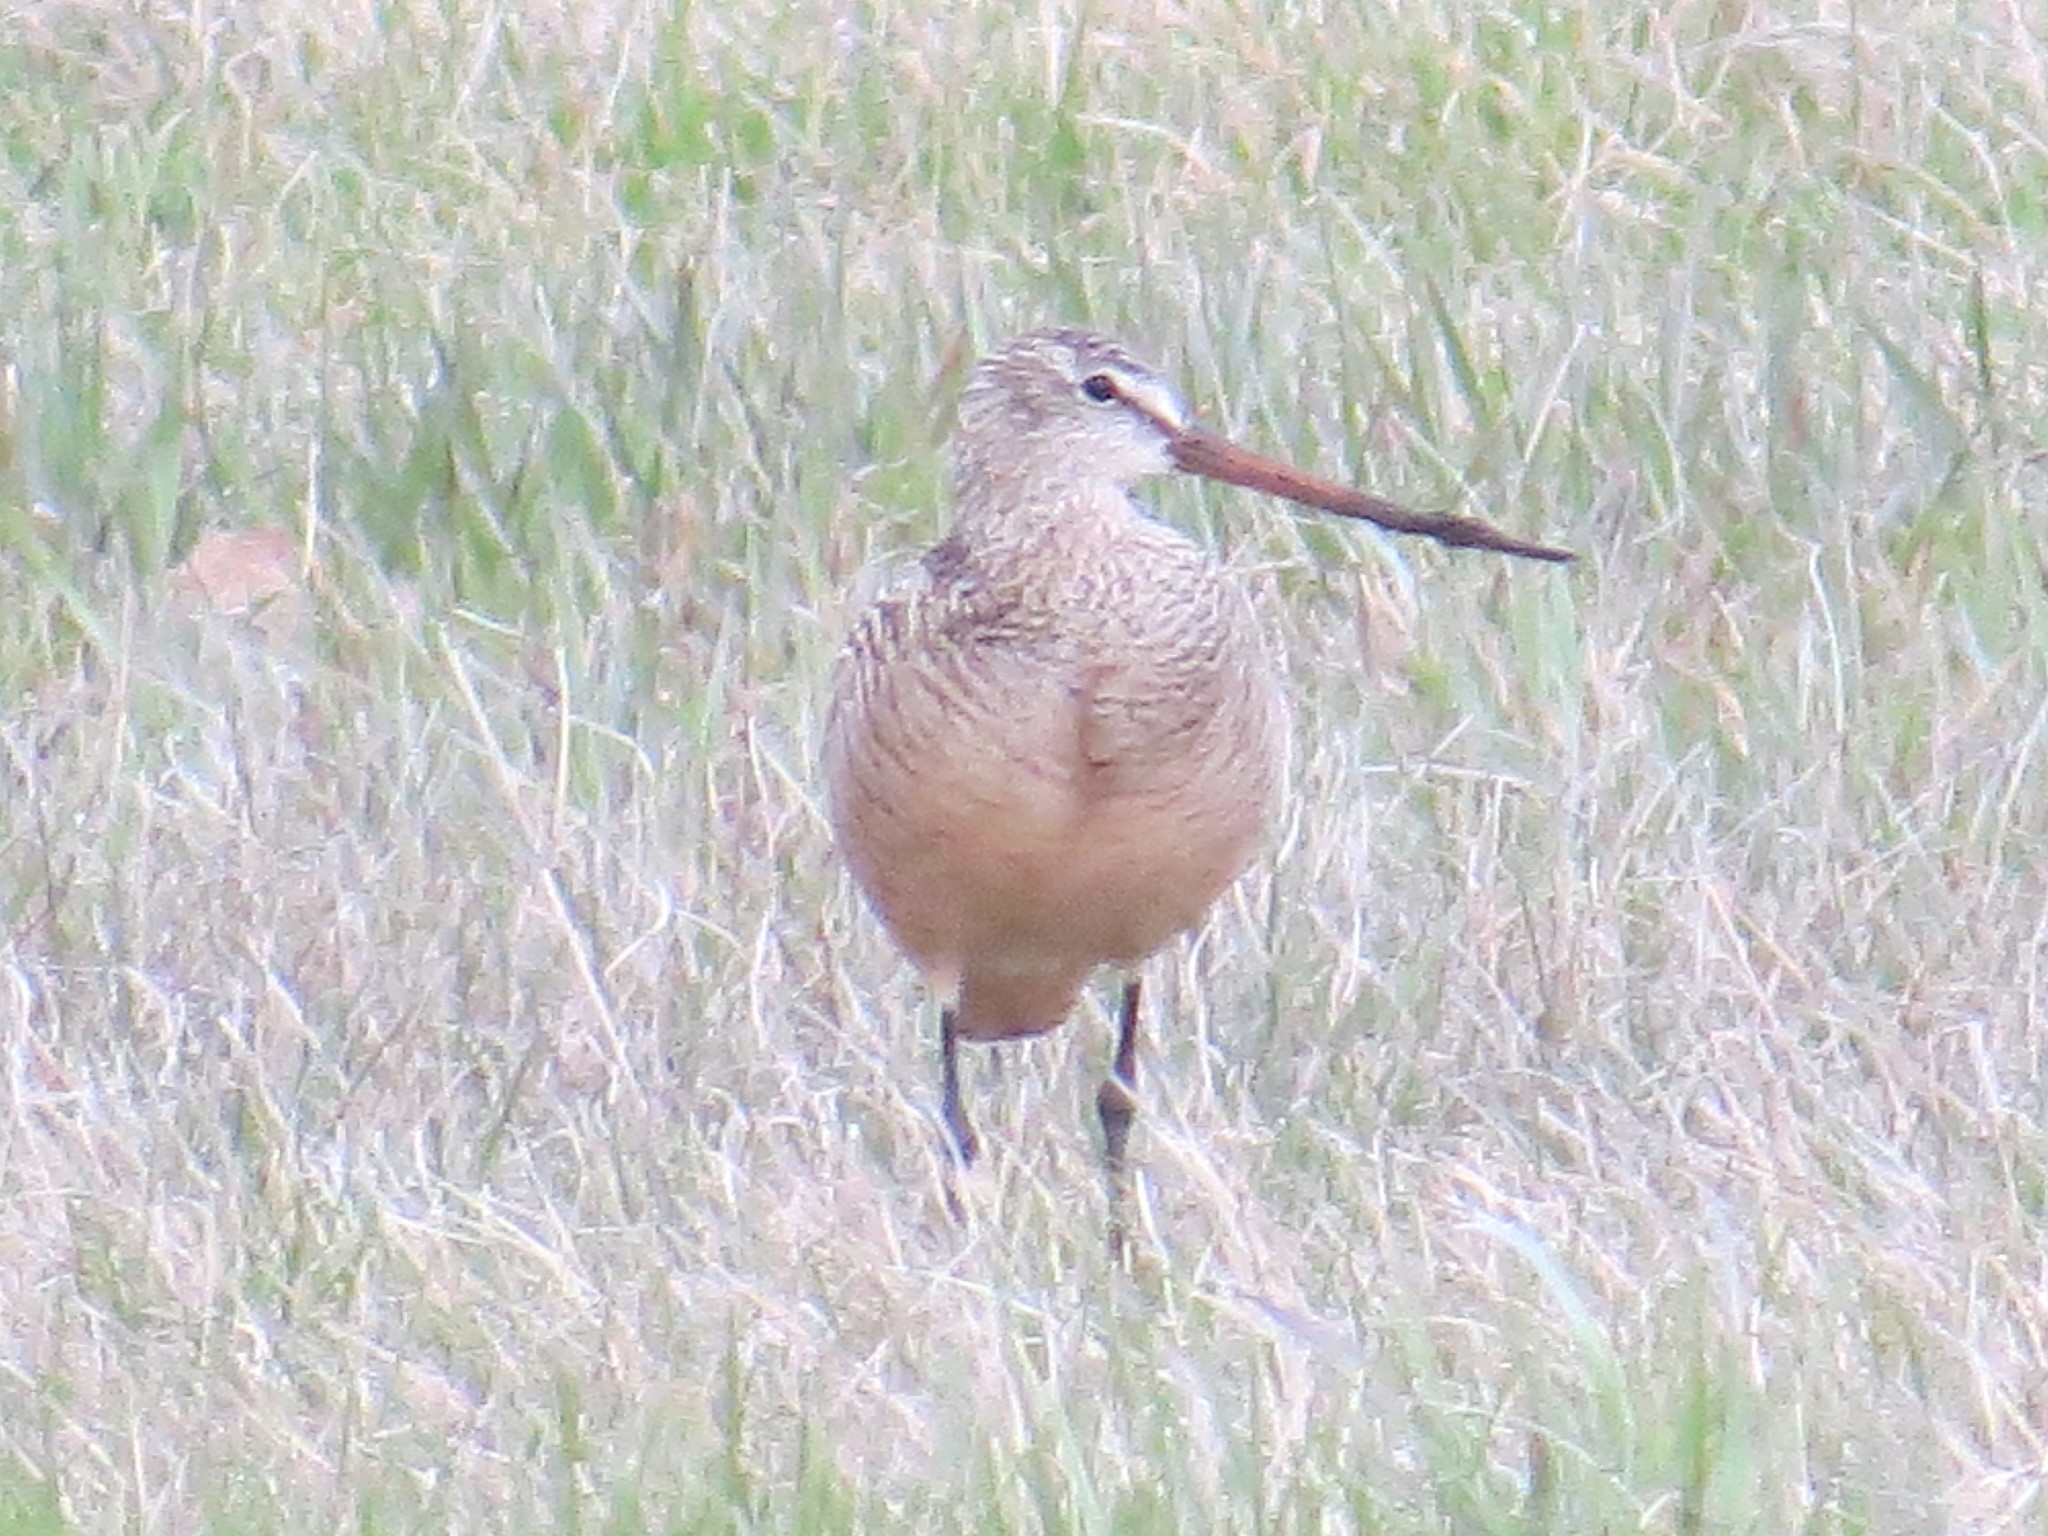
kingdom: Animalia
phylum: Chordata
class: Aves
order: Charadriiformes
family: Scolopacidae
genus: Limosa
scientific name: Limosa fedoa
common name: Marbled godwit
